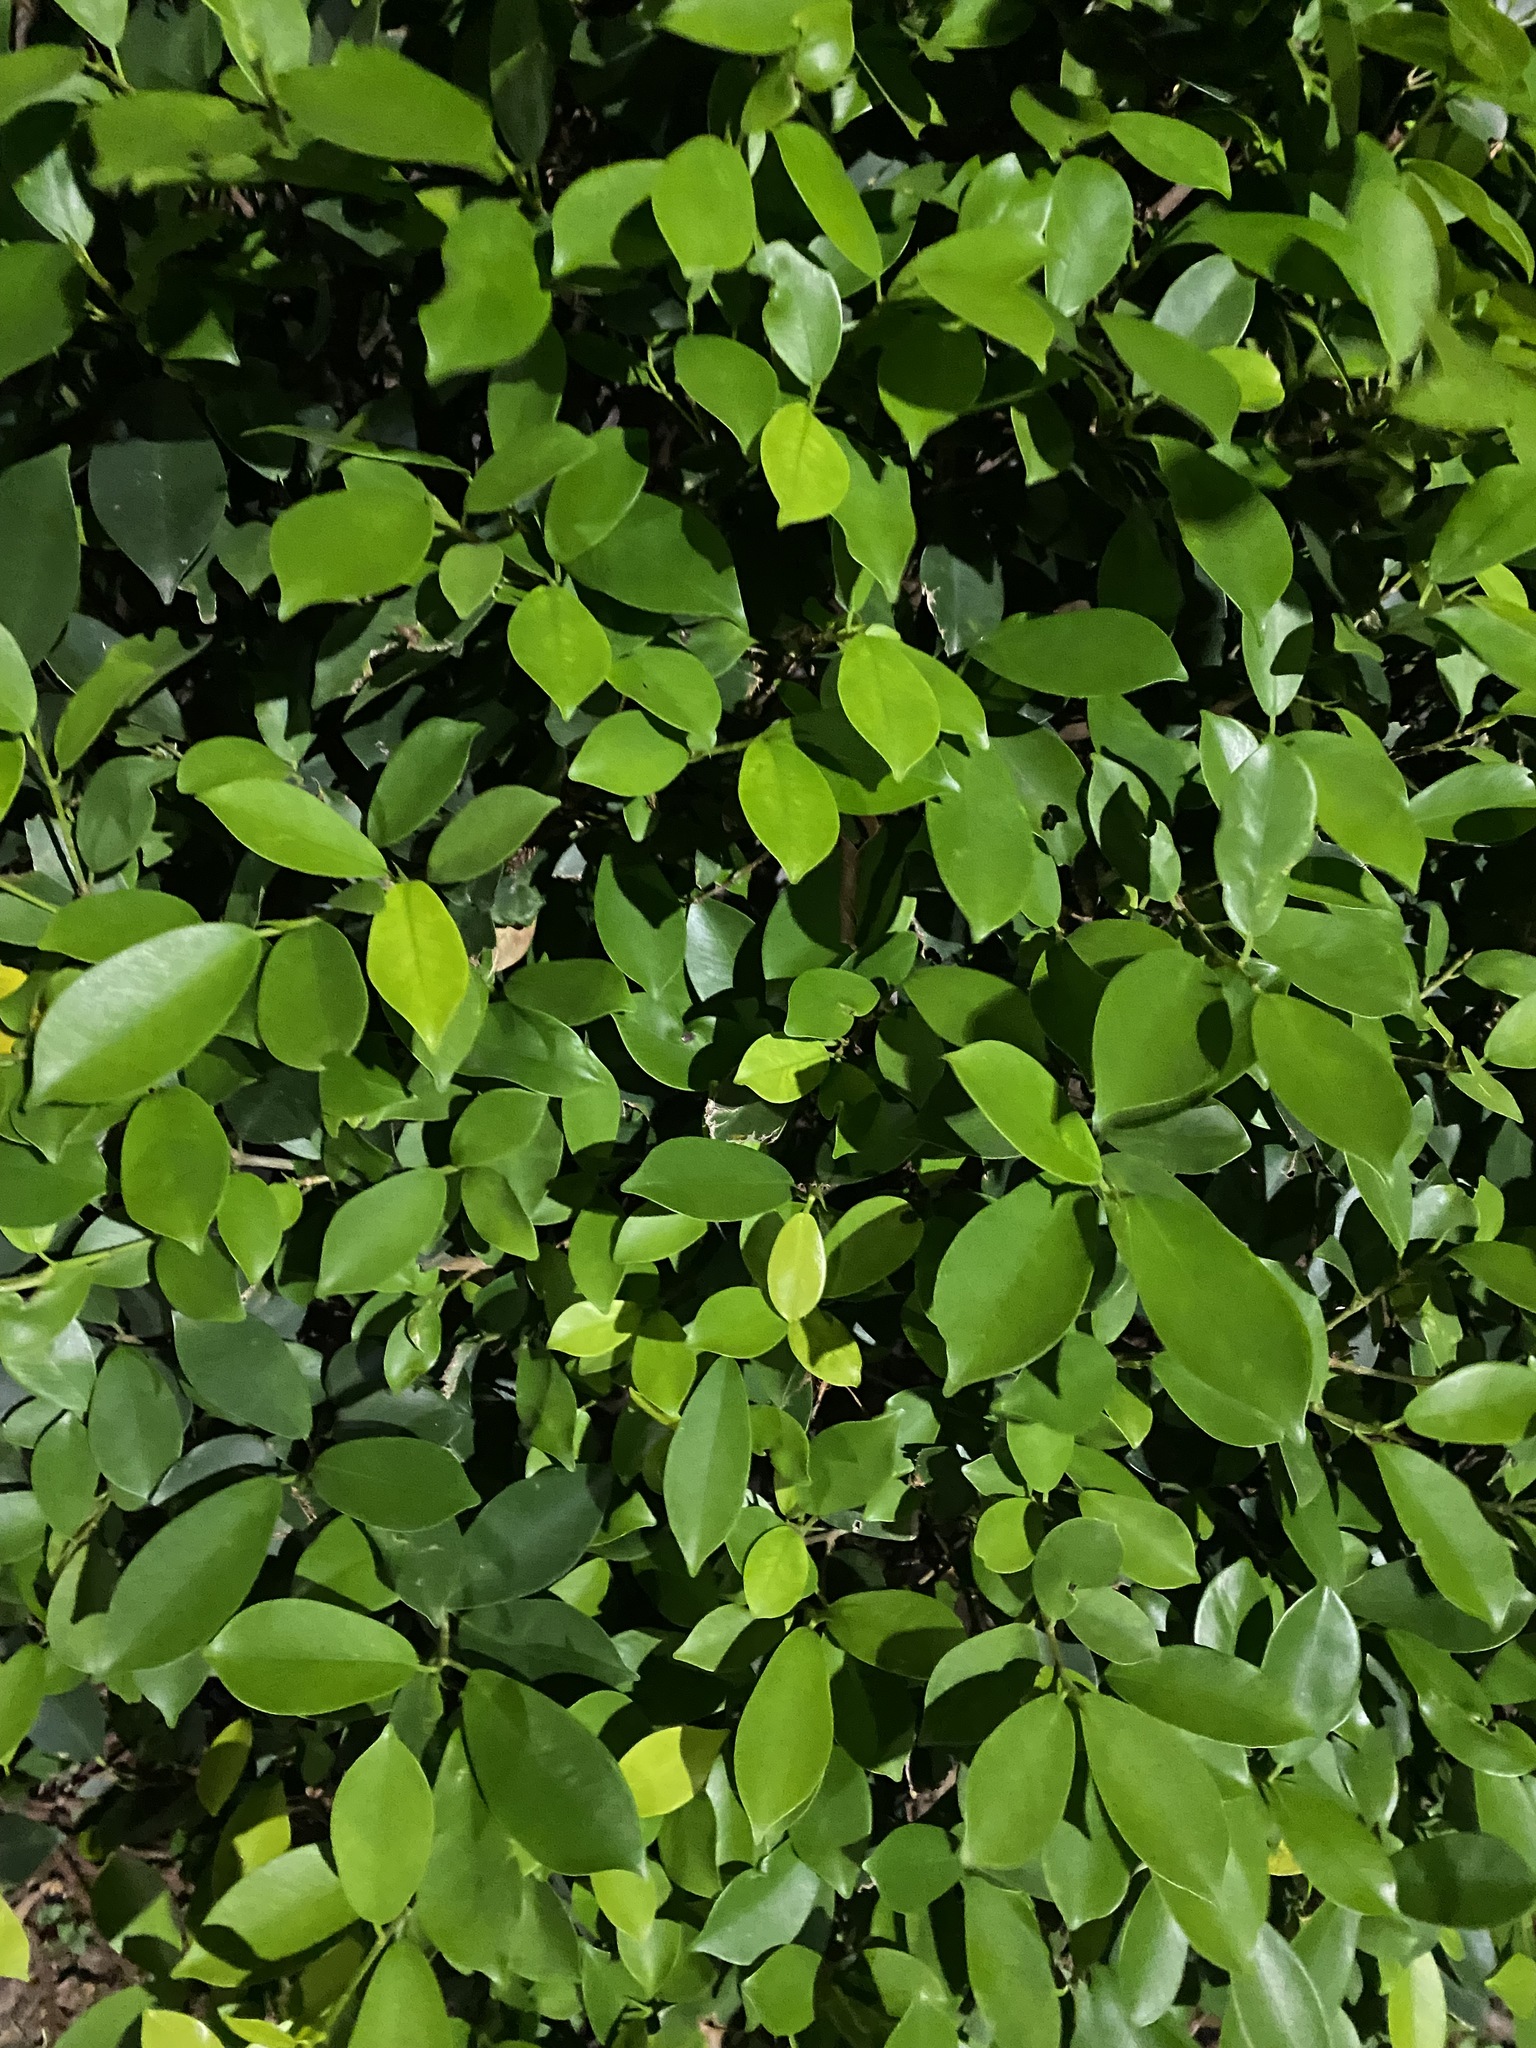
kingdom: Plantae
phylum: Tracheophyta
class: Magnoliopsida
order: Rosales
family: Moraceae
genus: Ficus
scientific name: Ficus microcarpa
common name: Chinese banyan
